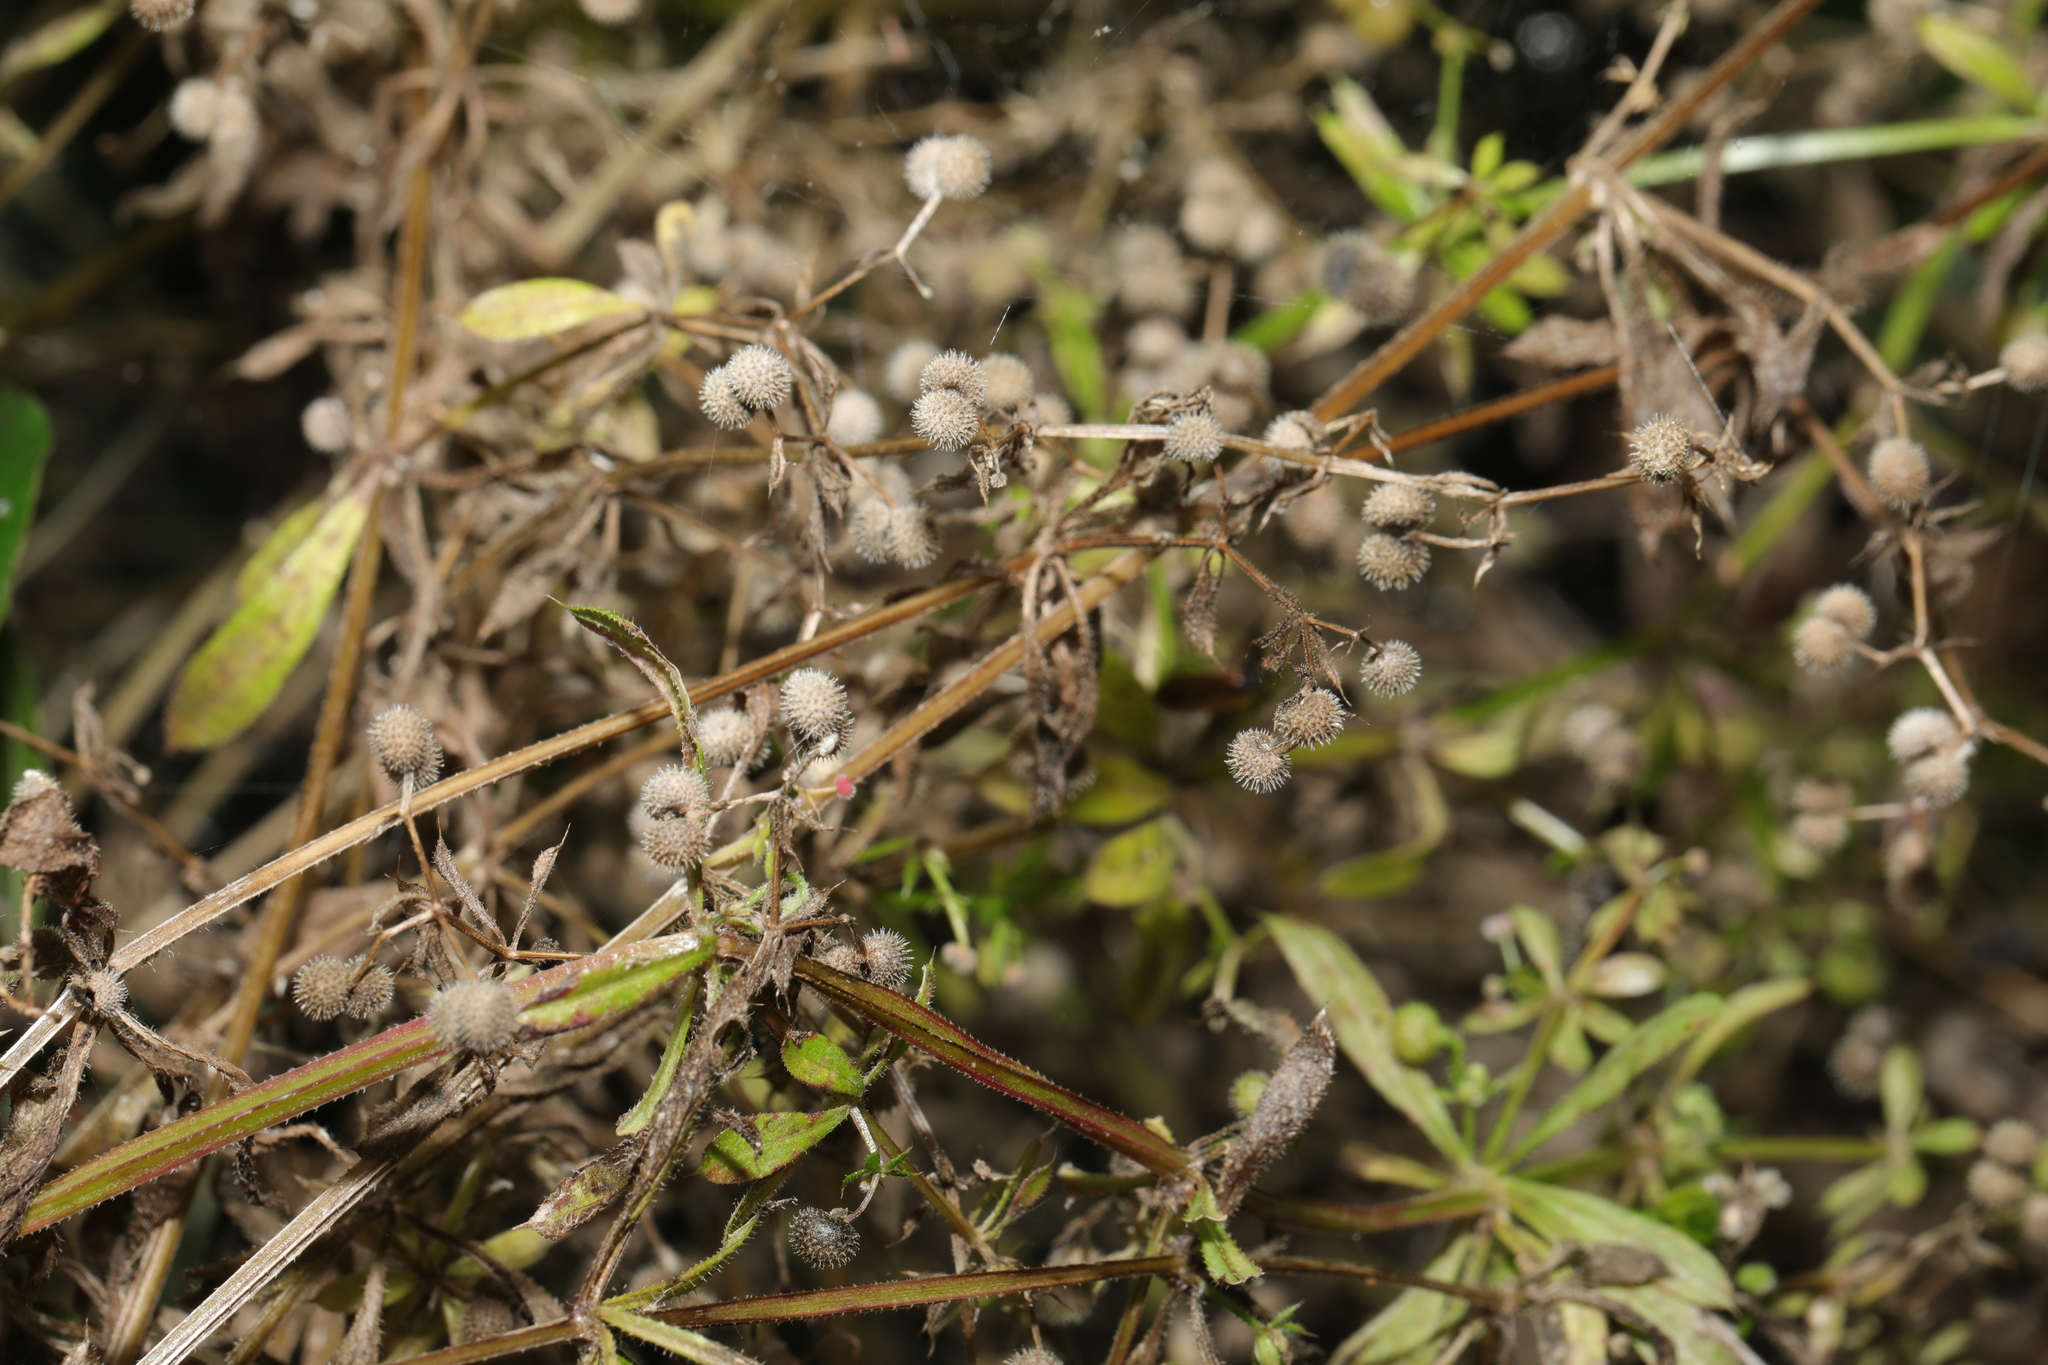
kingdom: Plantae
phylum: Tracheophyta
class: Magnoliopsida
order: Gentianales
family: Rubiaceae
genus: Galium
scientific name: Galium aparine
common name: Cleavers
